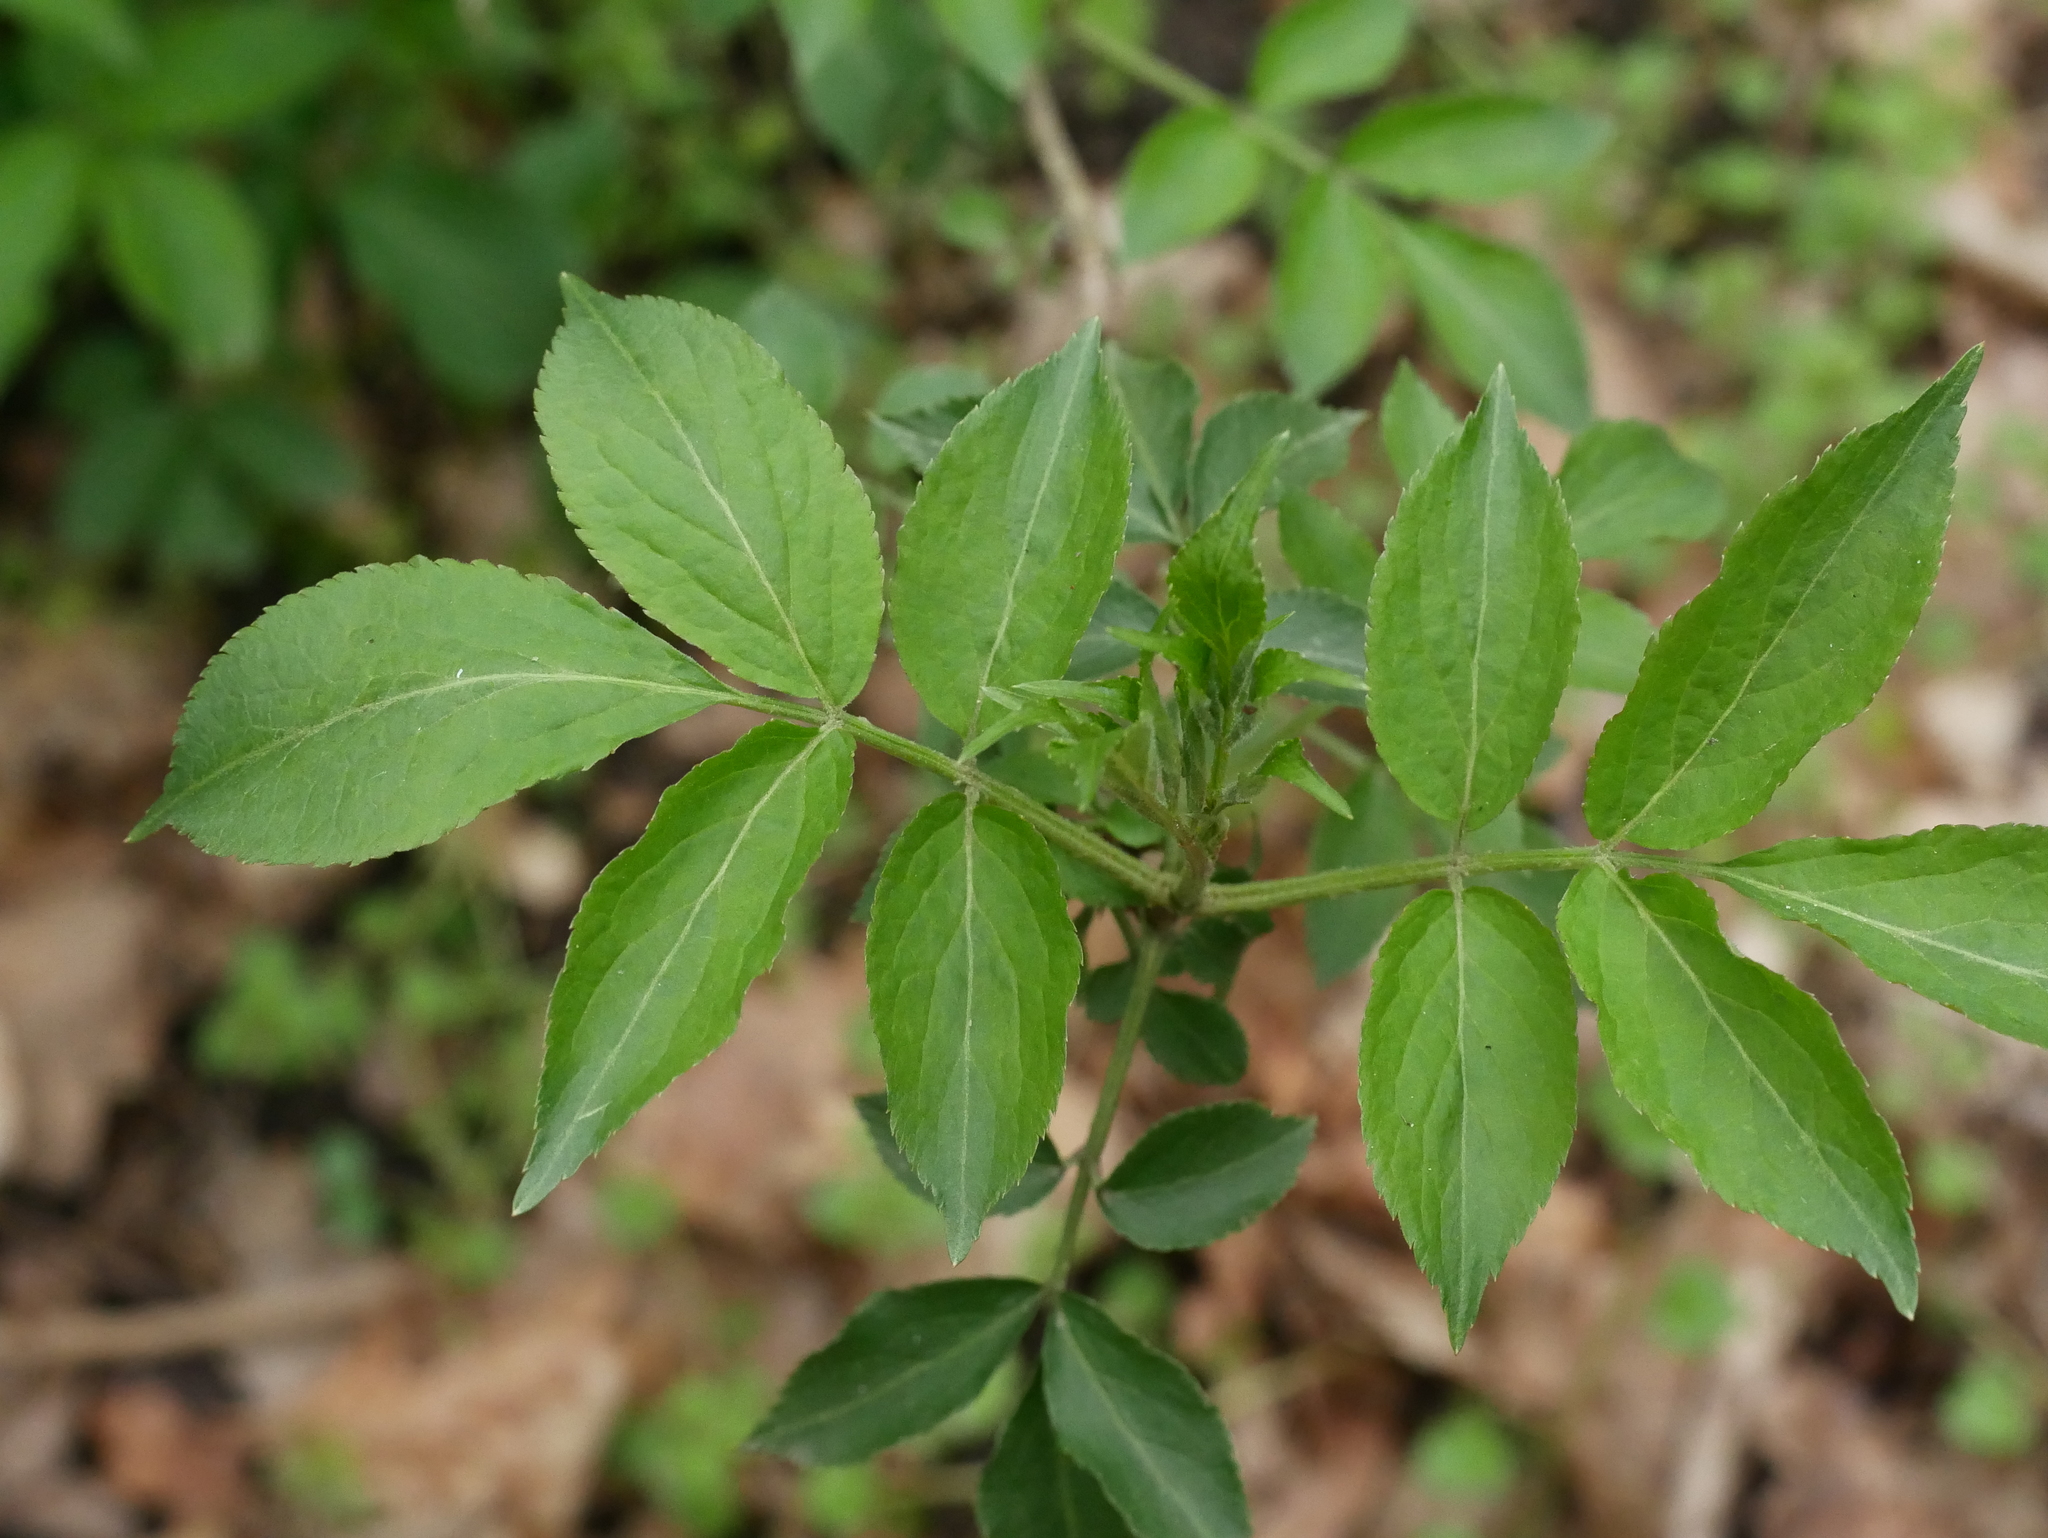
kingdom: Plantae
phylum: Tracheophyta
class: Magnoliopsida
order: Dipsacales
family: Viburnaceae
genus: Sambucus
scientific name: Sambucus nigra
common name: Elder
